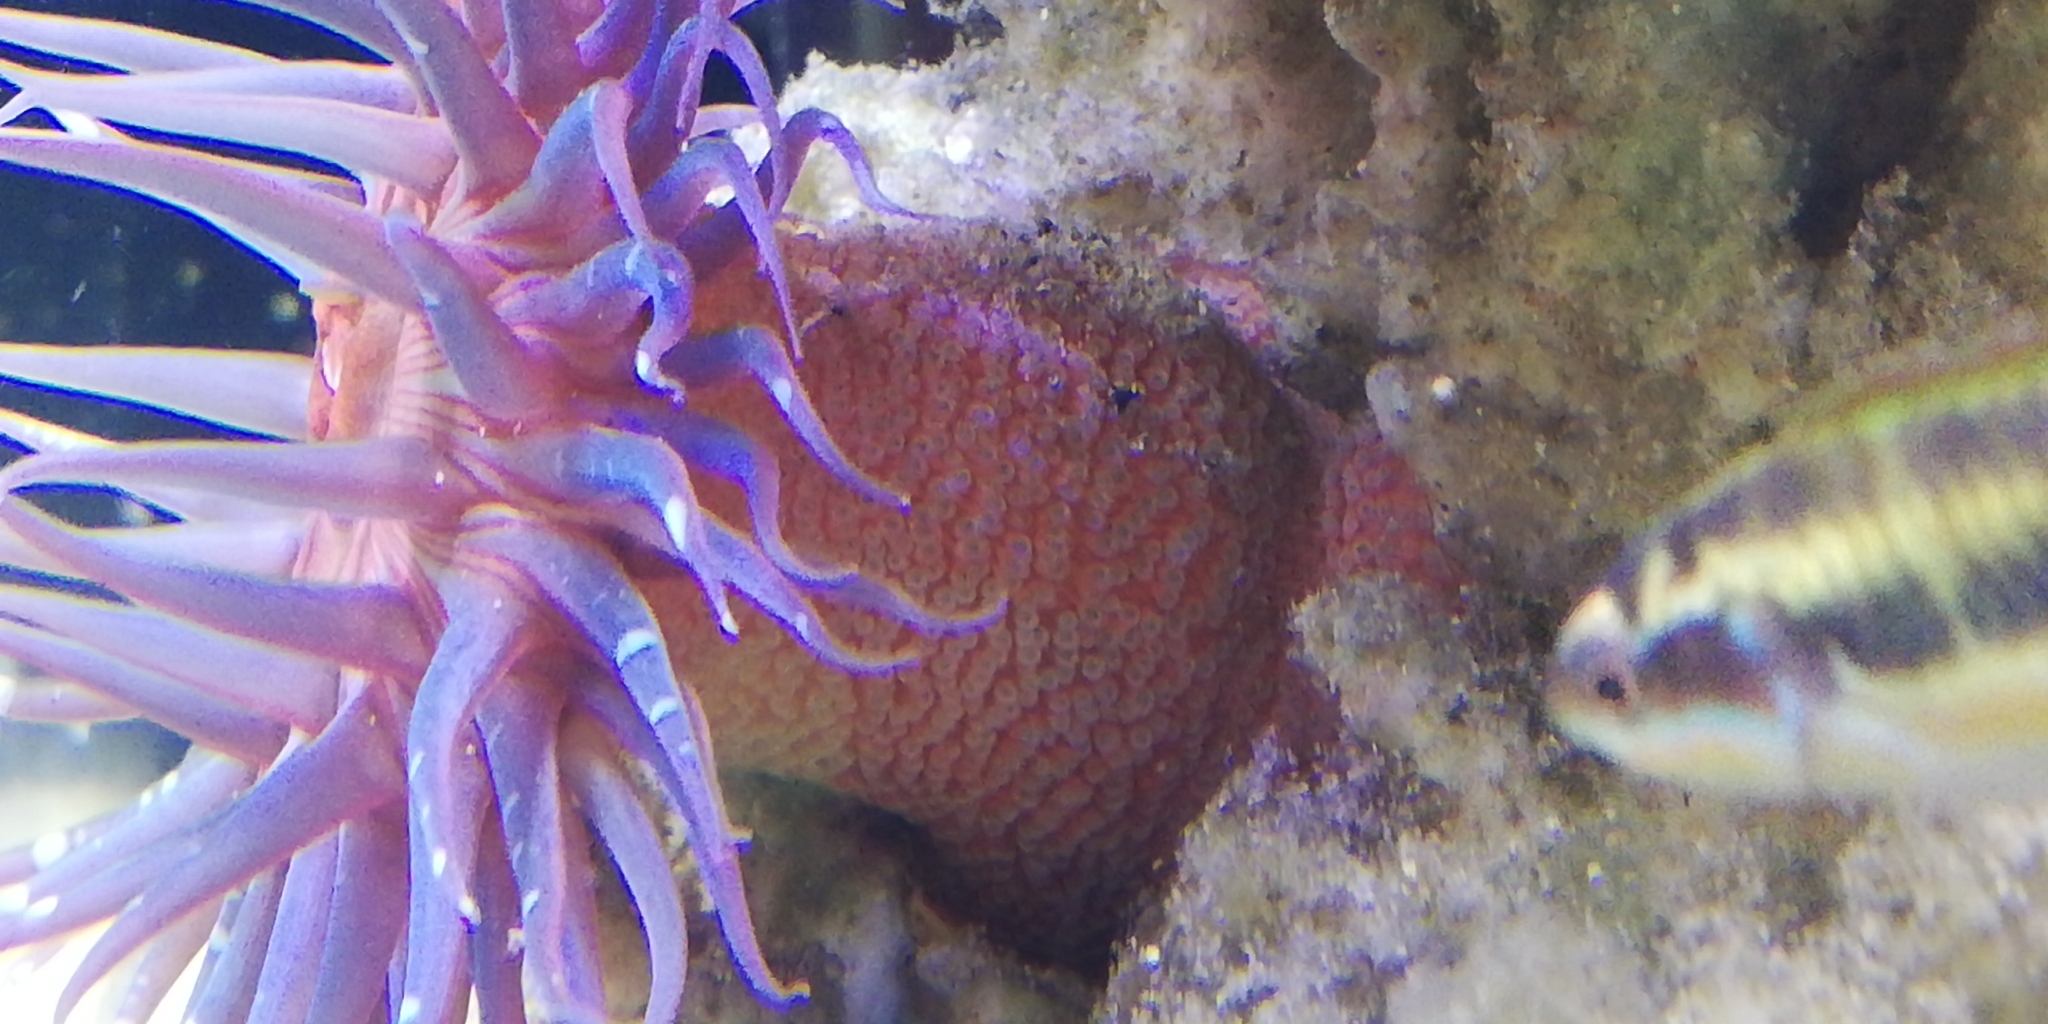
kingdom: Animalia
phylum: Cnidaria
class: Anthozoa
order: Actiniaria
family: Actiniidae
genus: Anthopleura
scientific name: Anthopleura biscayensis
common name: Bunodosoma biscayense
